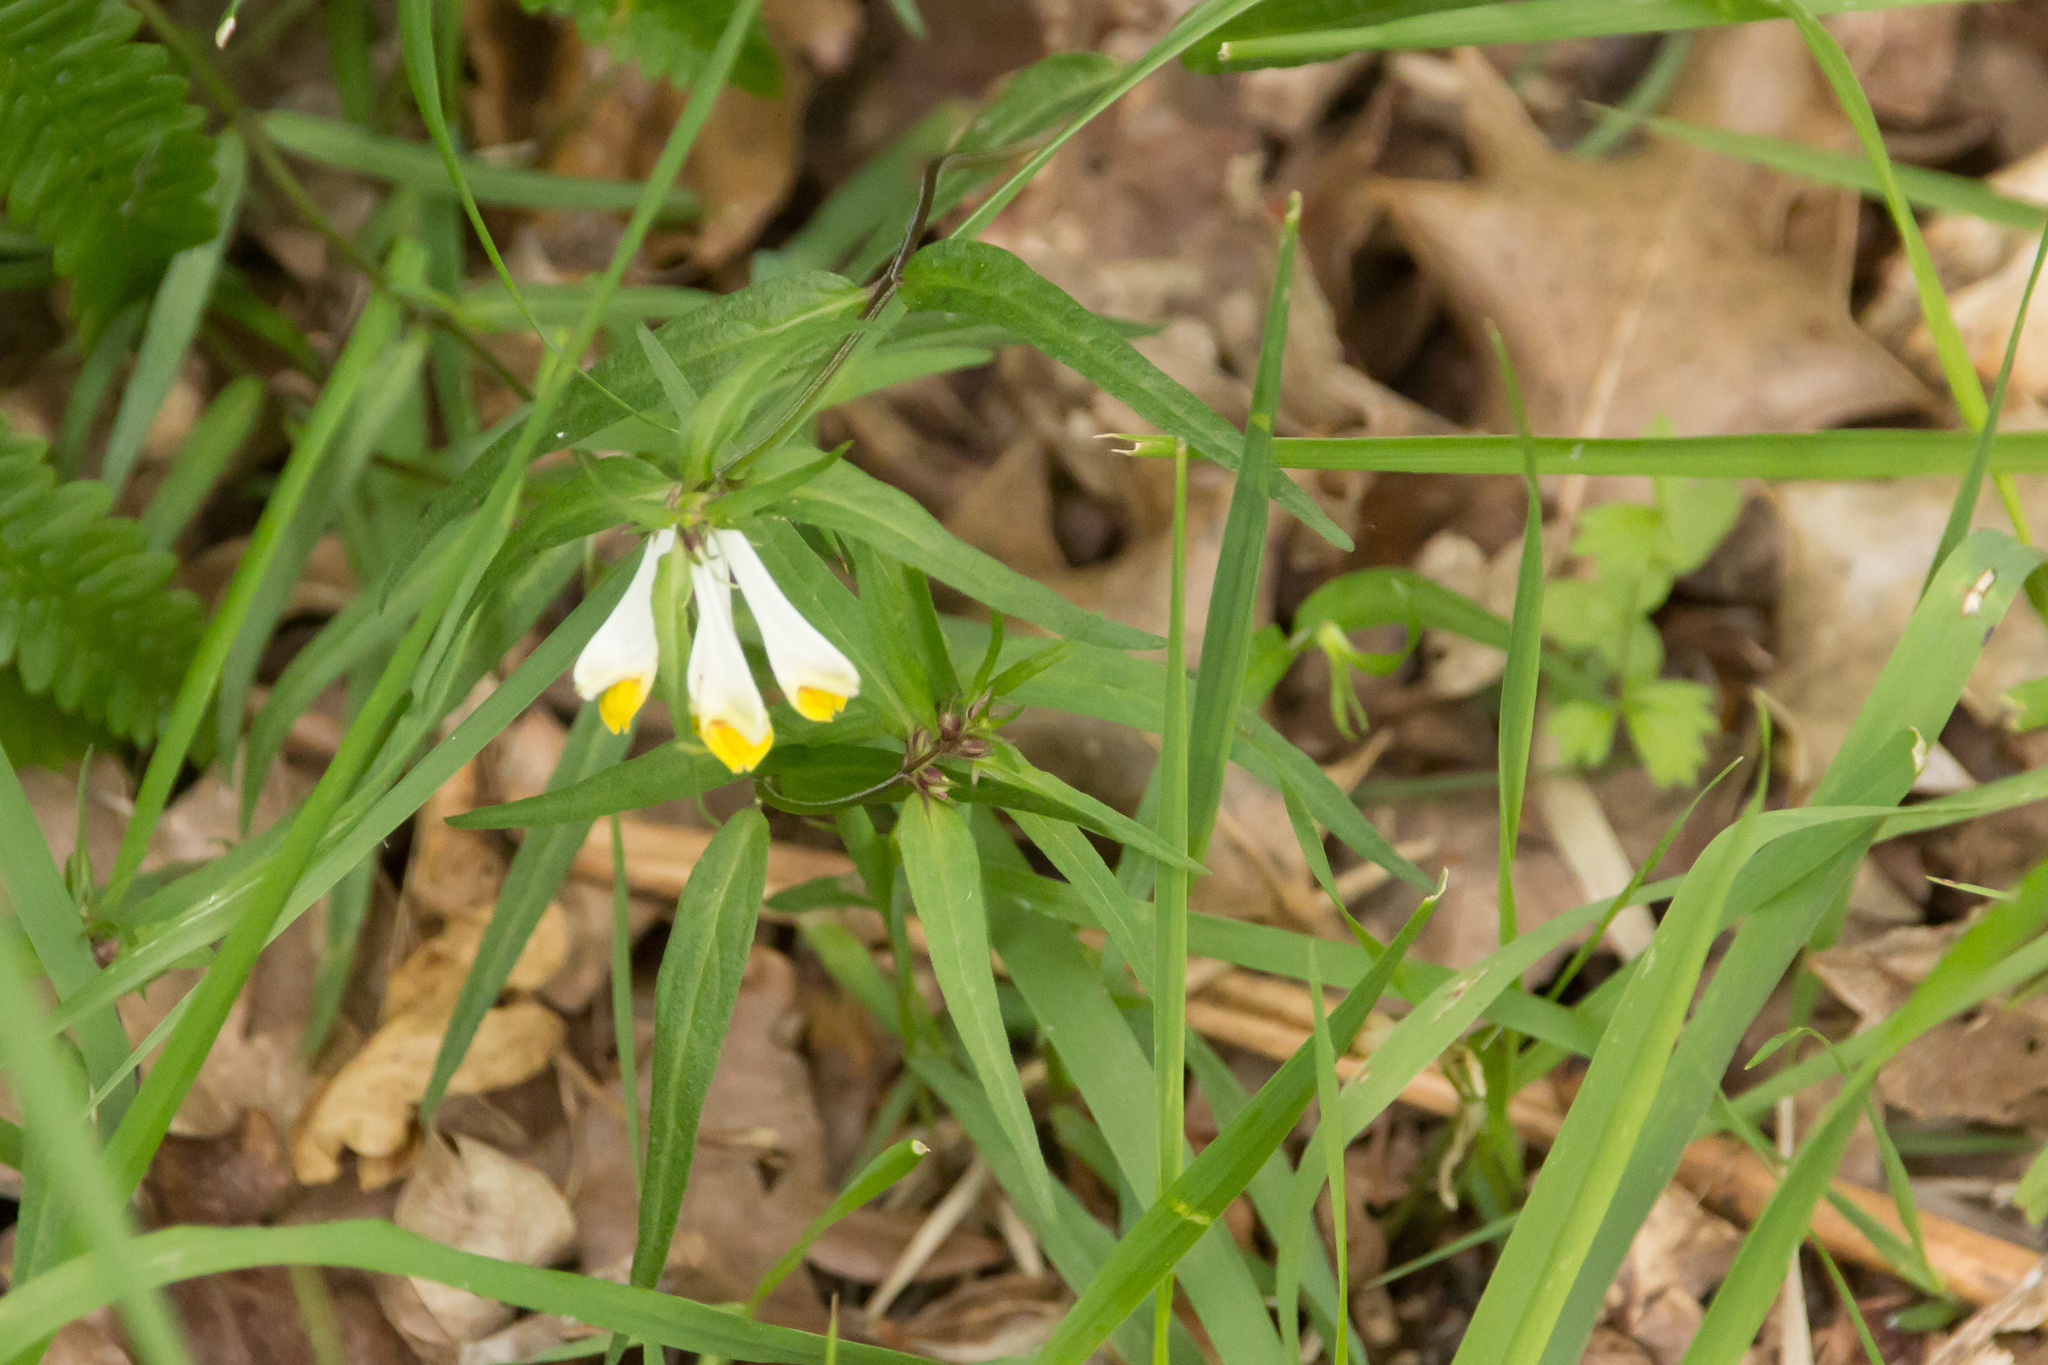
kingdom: Plantae
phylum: Tracheophyta
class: Magnoliopsida
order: Lamiales
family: Orobanchaceae
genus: Melampyrum
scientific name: Melampyrum pratense
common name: Common cow-wheat
